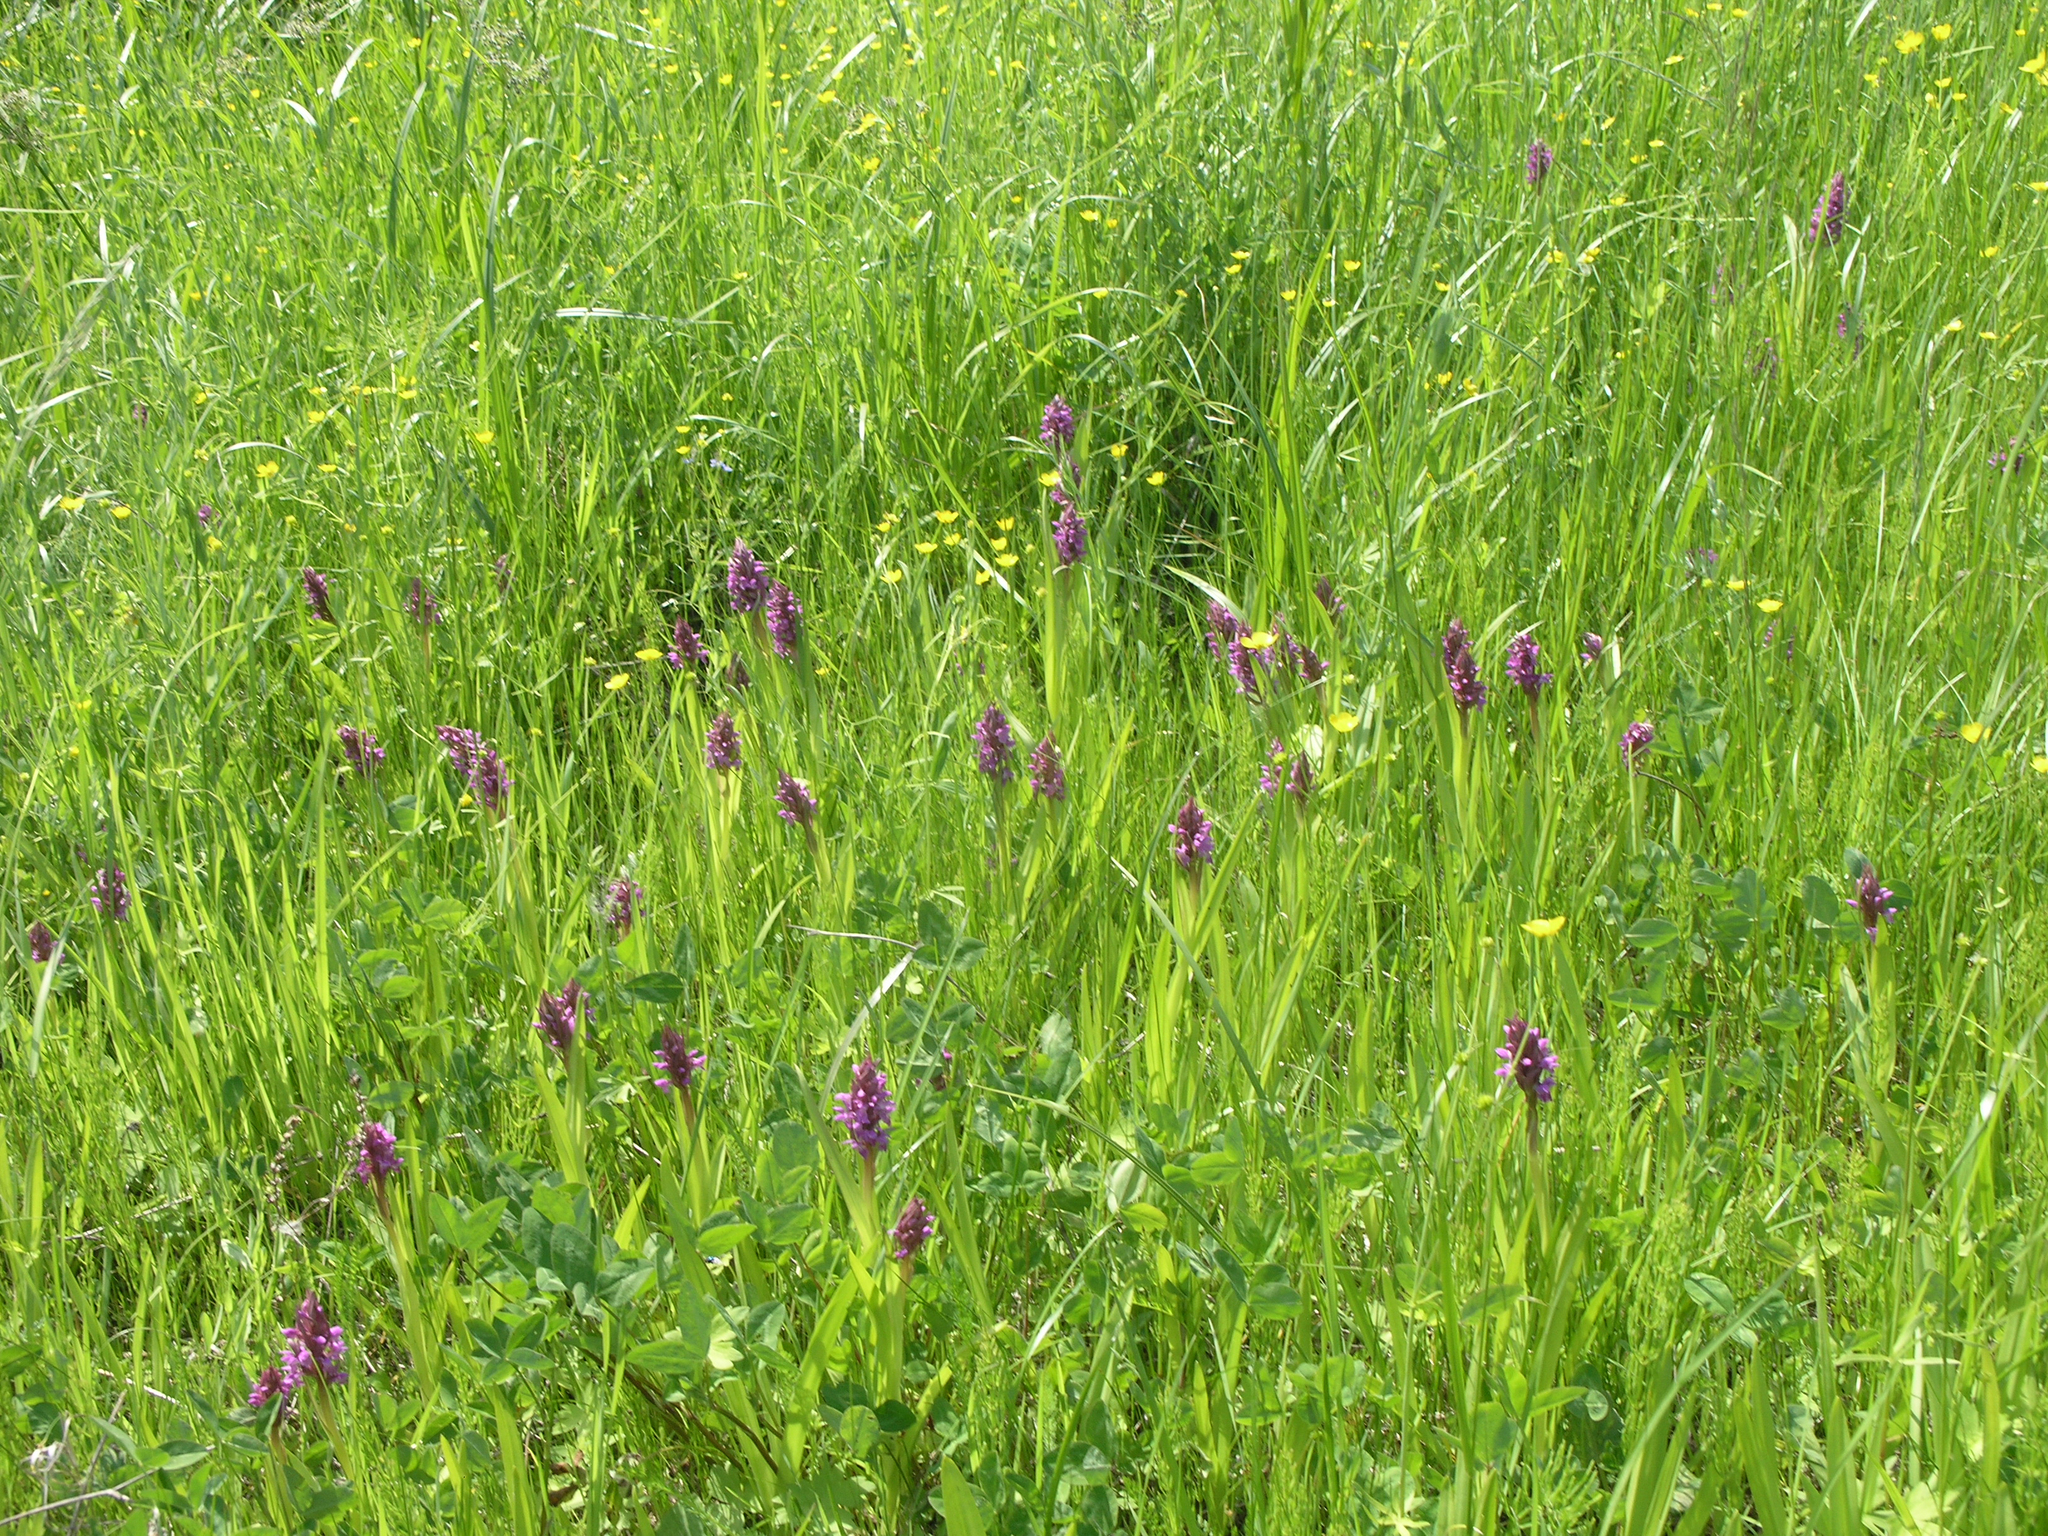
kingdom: Plantae
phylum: Tracheophyta
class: Liliopsida
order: Asparagales
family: Orchidaceae
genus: Dactylorhiza
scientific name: Dactylorhiza incarnata
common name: Early marsh-orchid
